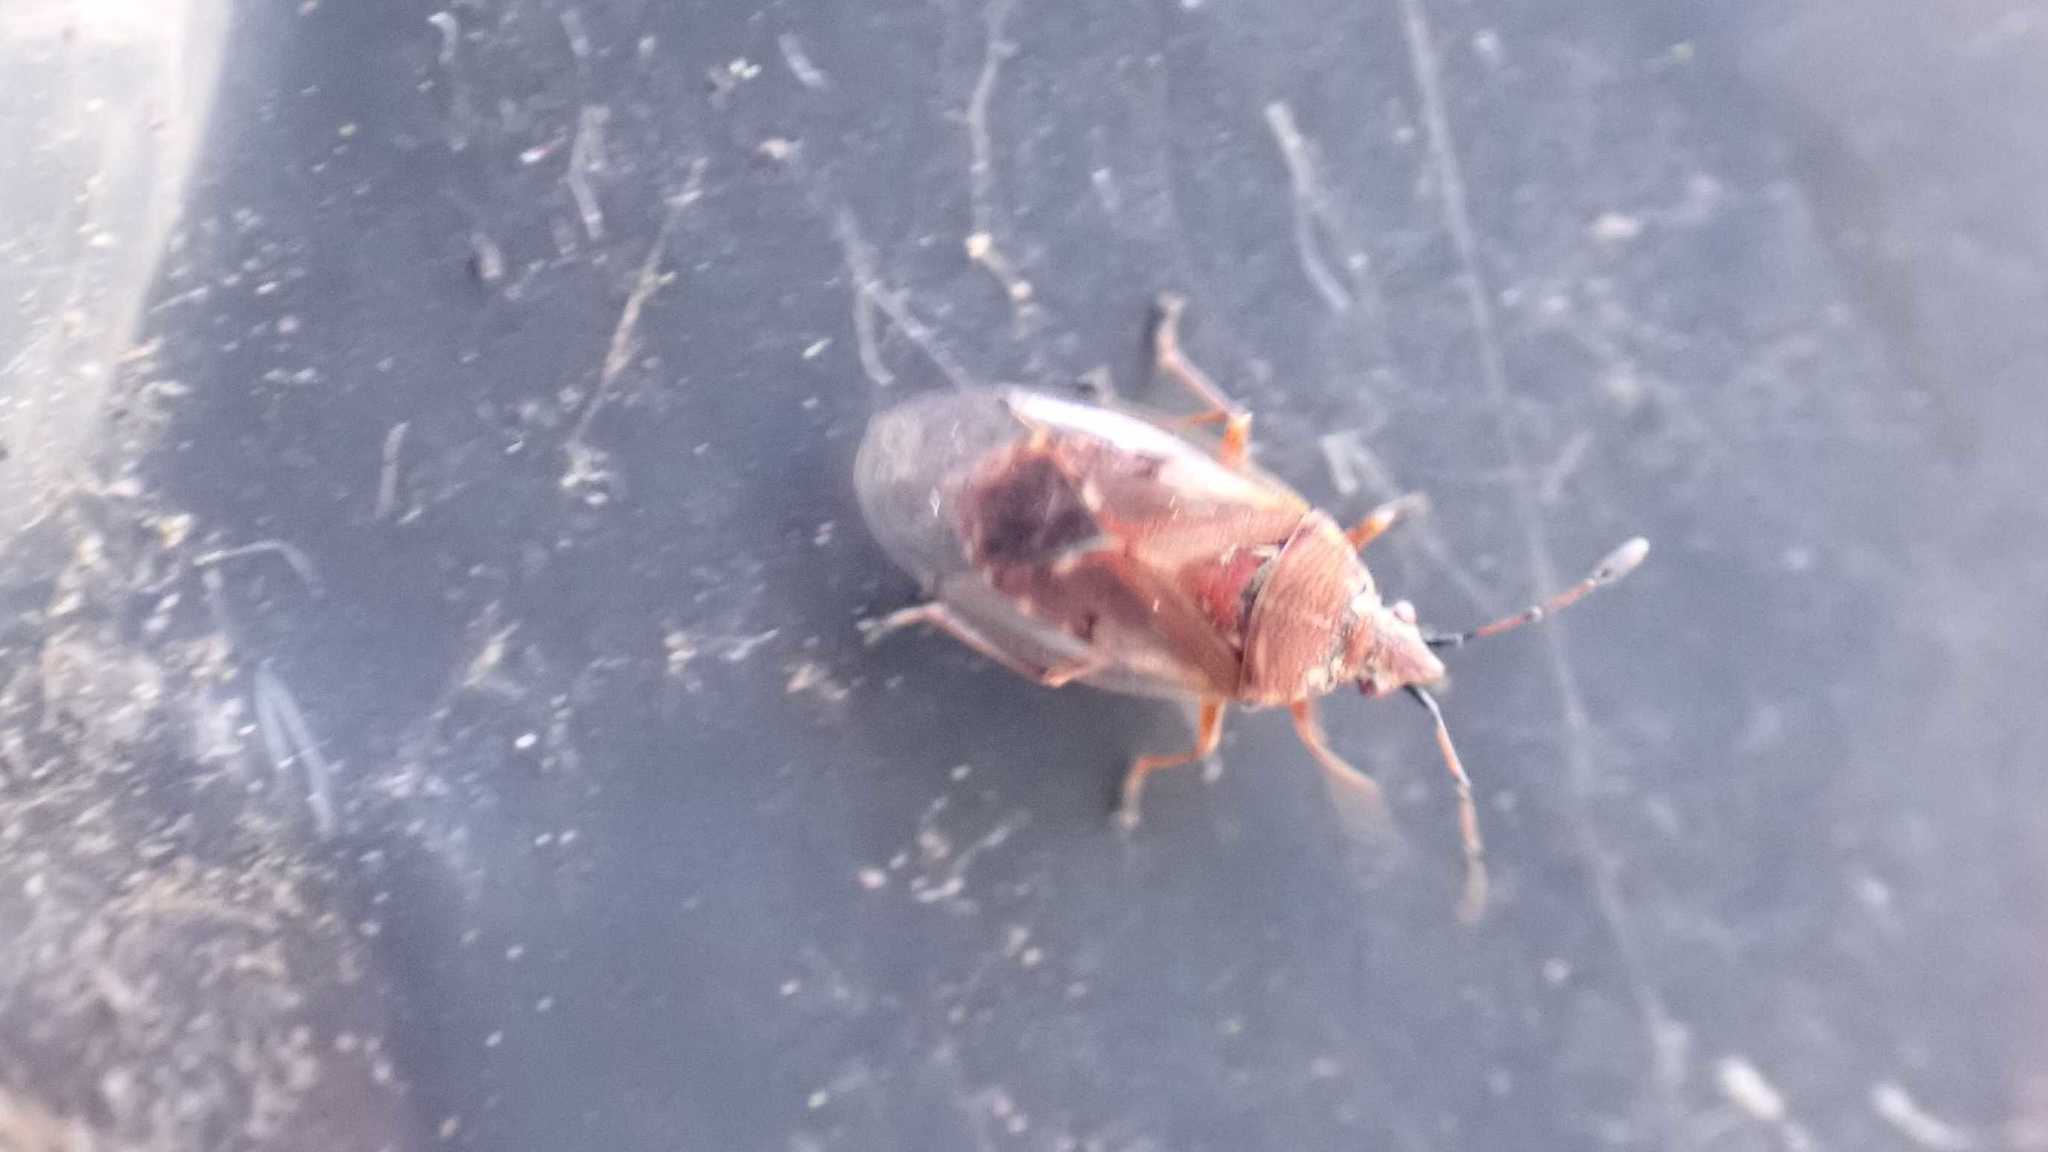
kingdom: Animalia
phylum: Arthropoda
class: Insecta
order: Hemiptera
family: Lygaeidae
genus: Kleidocerys
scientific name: Kleidocerys resedae
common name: Birch catkin bug
